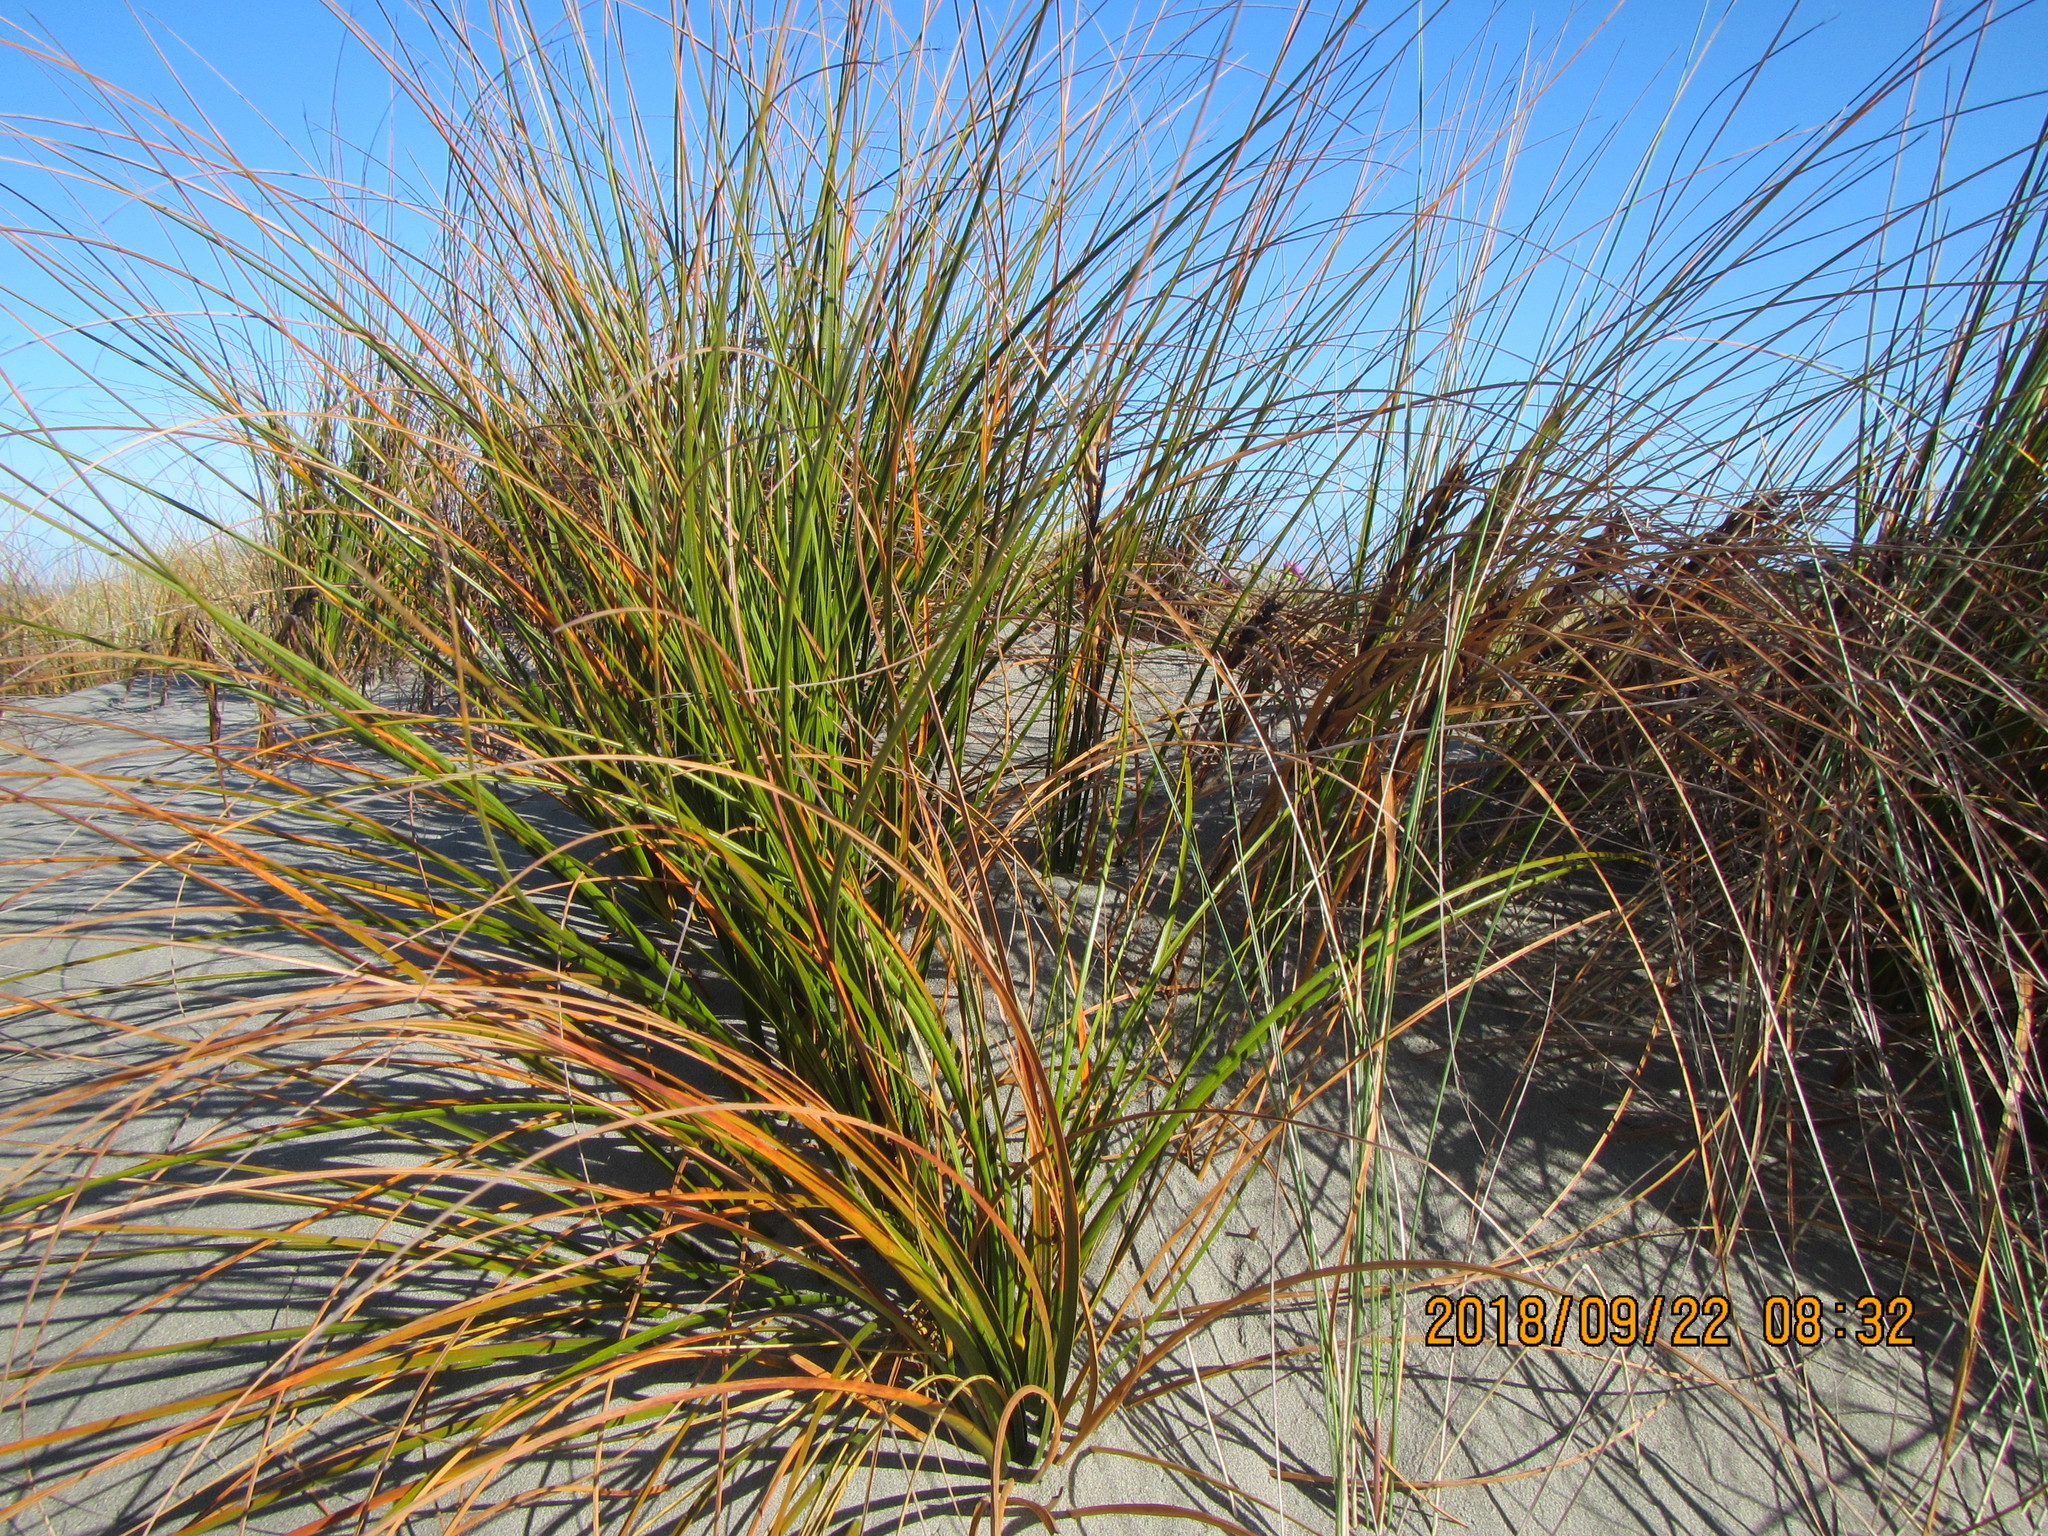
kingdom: Plantae
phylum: Tracheophyta
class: Liliopsida
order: Poales
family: Cyperaceae
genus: Ficinia
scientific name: Ficinia spiralis
